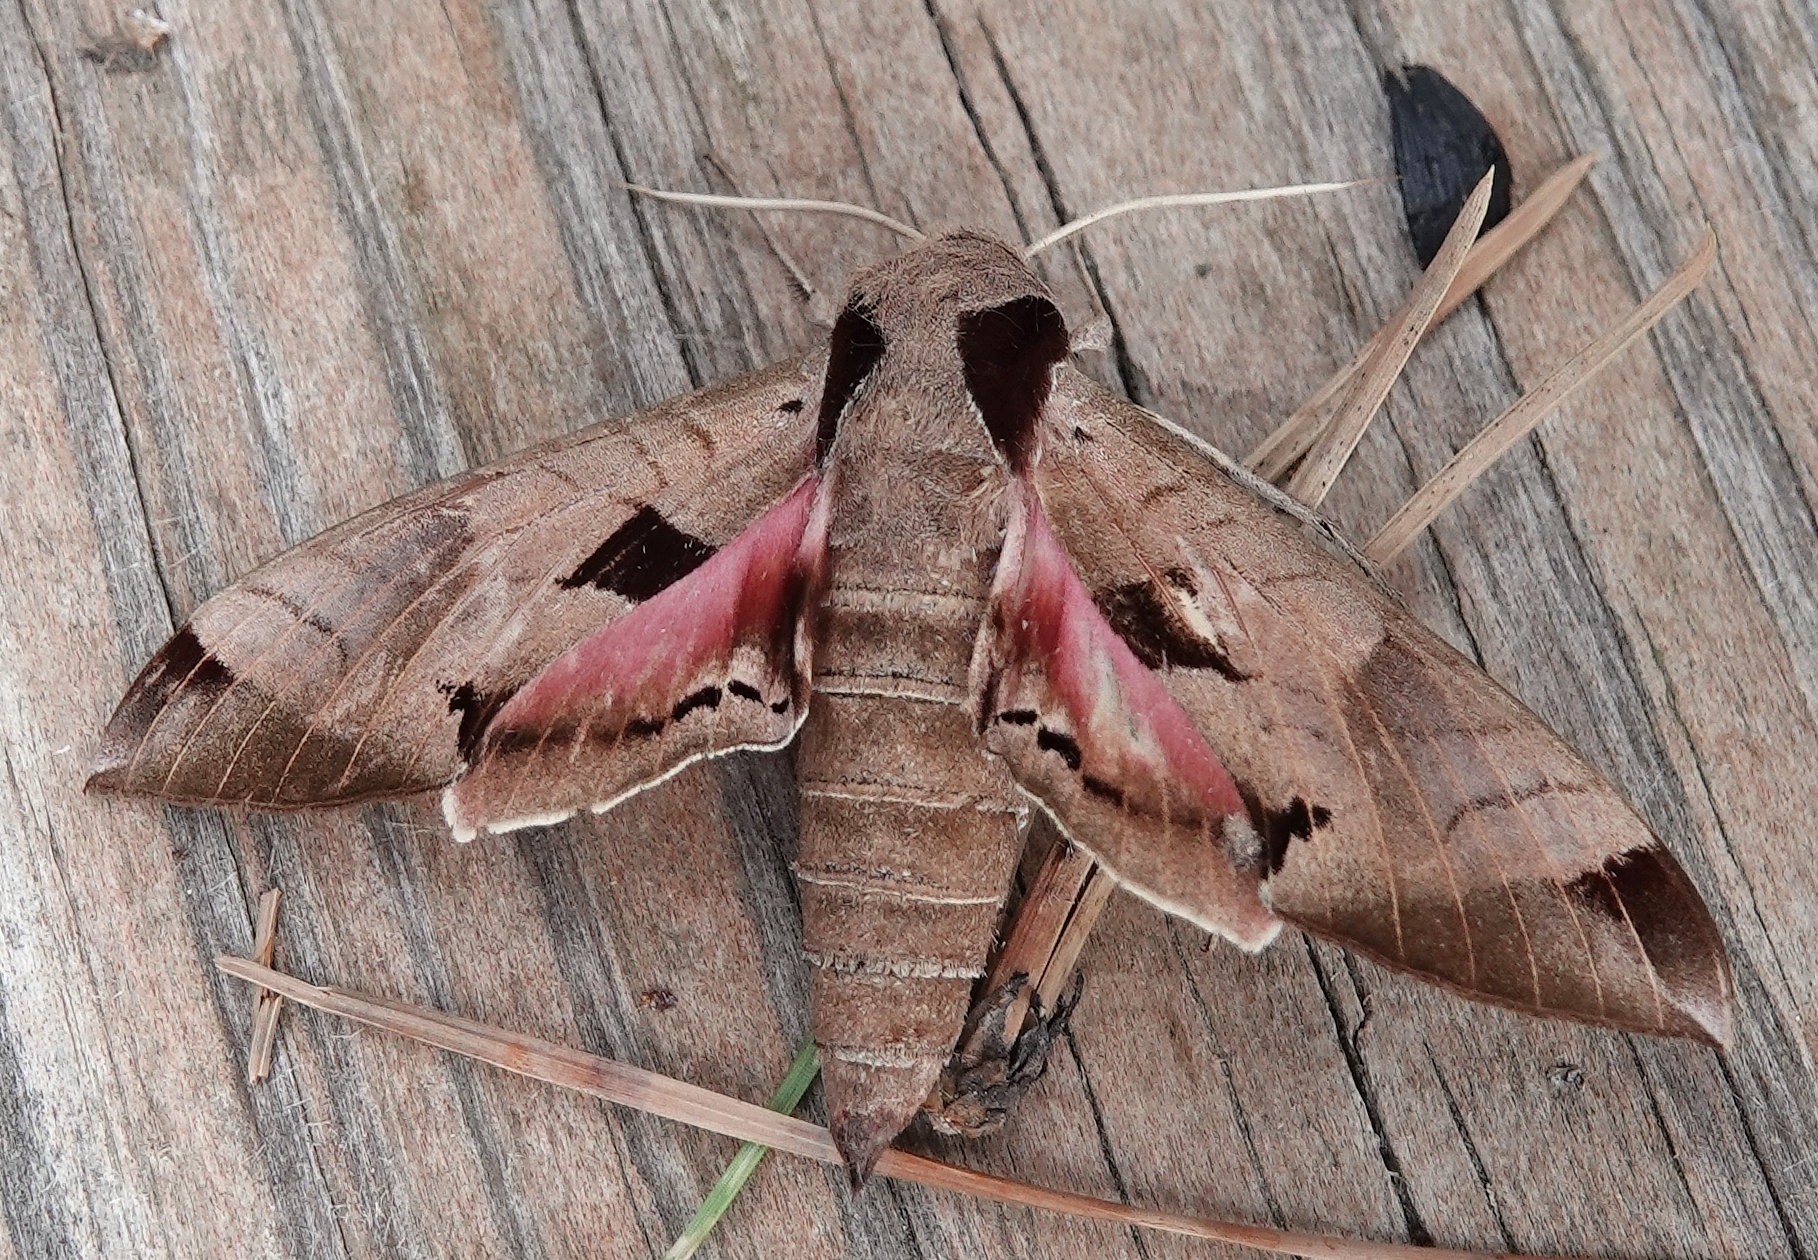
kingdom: Animalia
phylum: Arthropoda
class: Insecta
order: Lepidoptera
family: Sphingidae
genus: Eumorpha
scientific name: Eumorpha achemon
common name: Achemon sphinx
